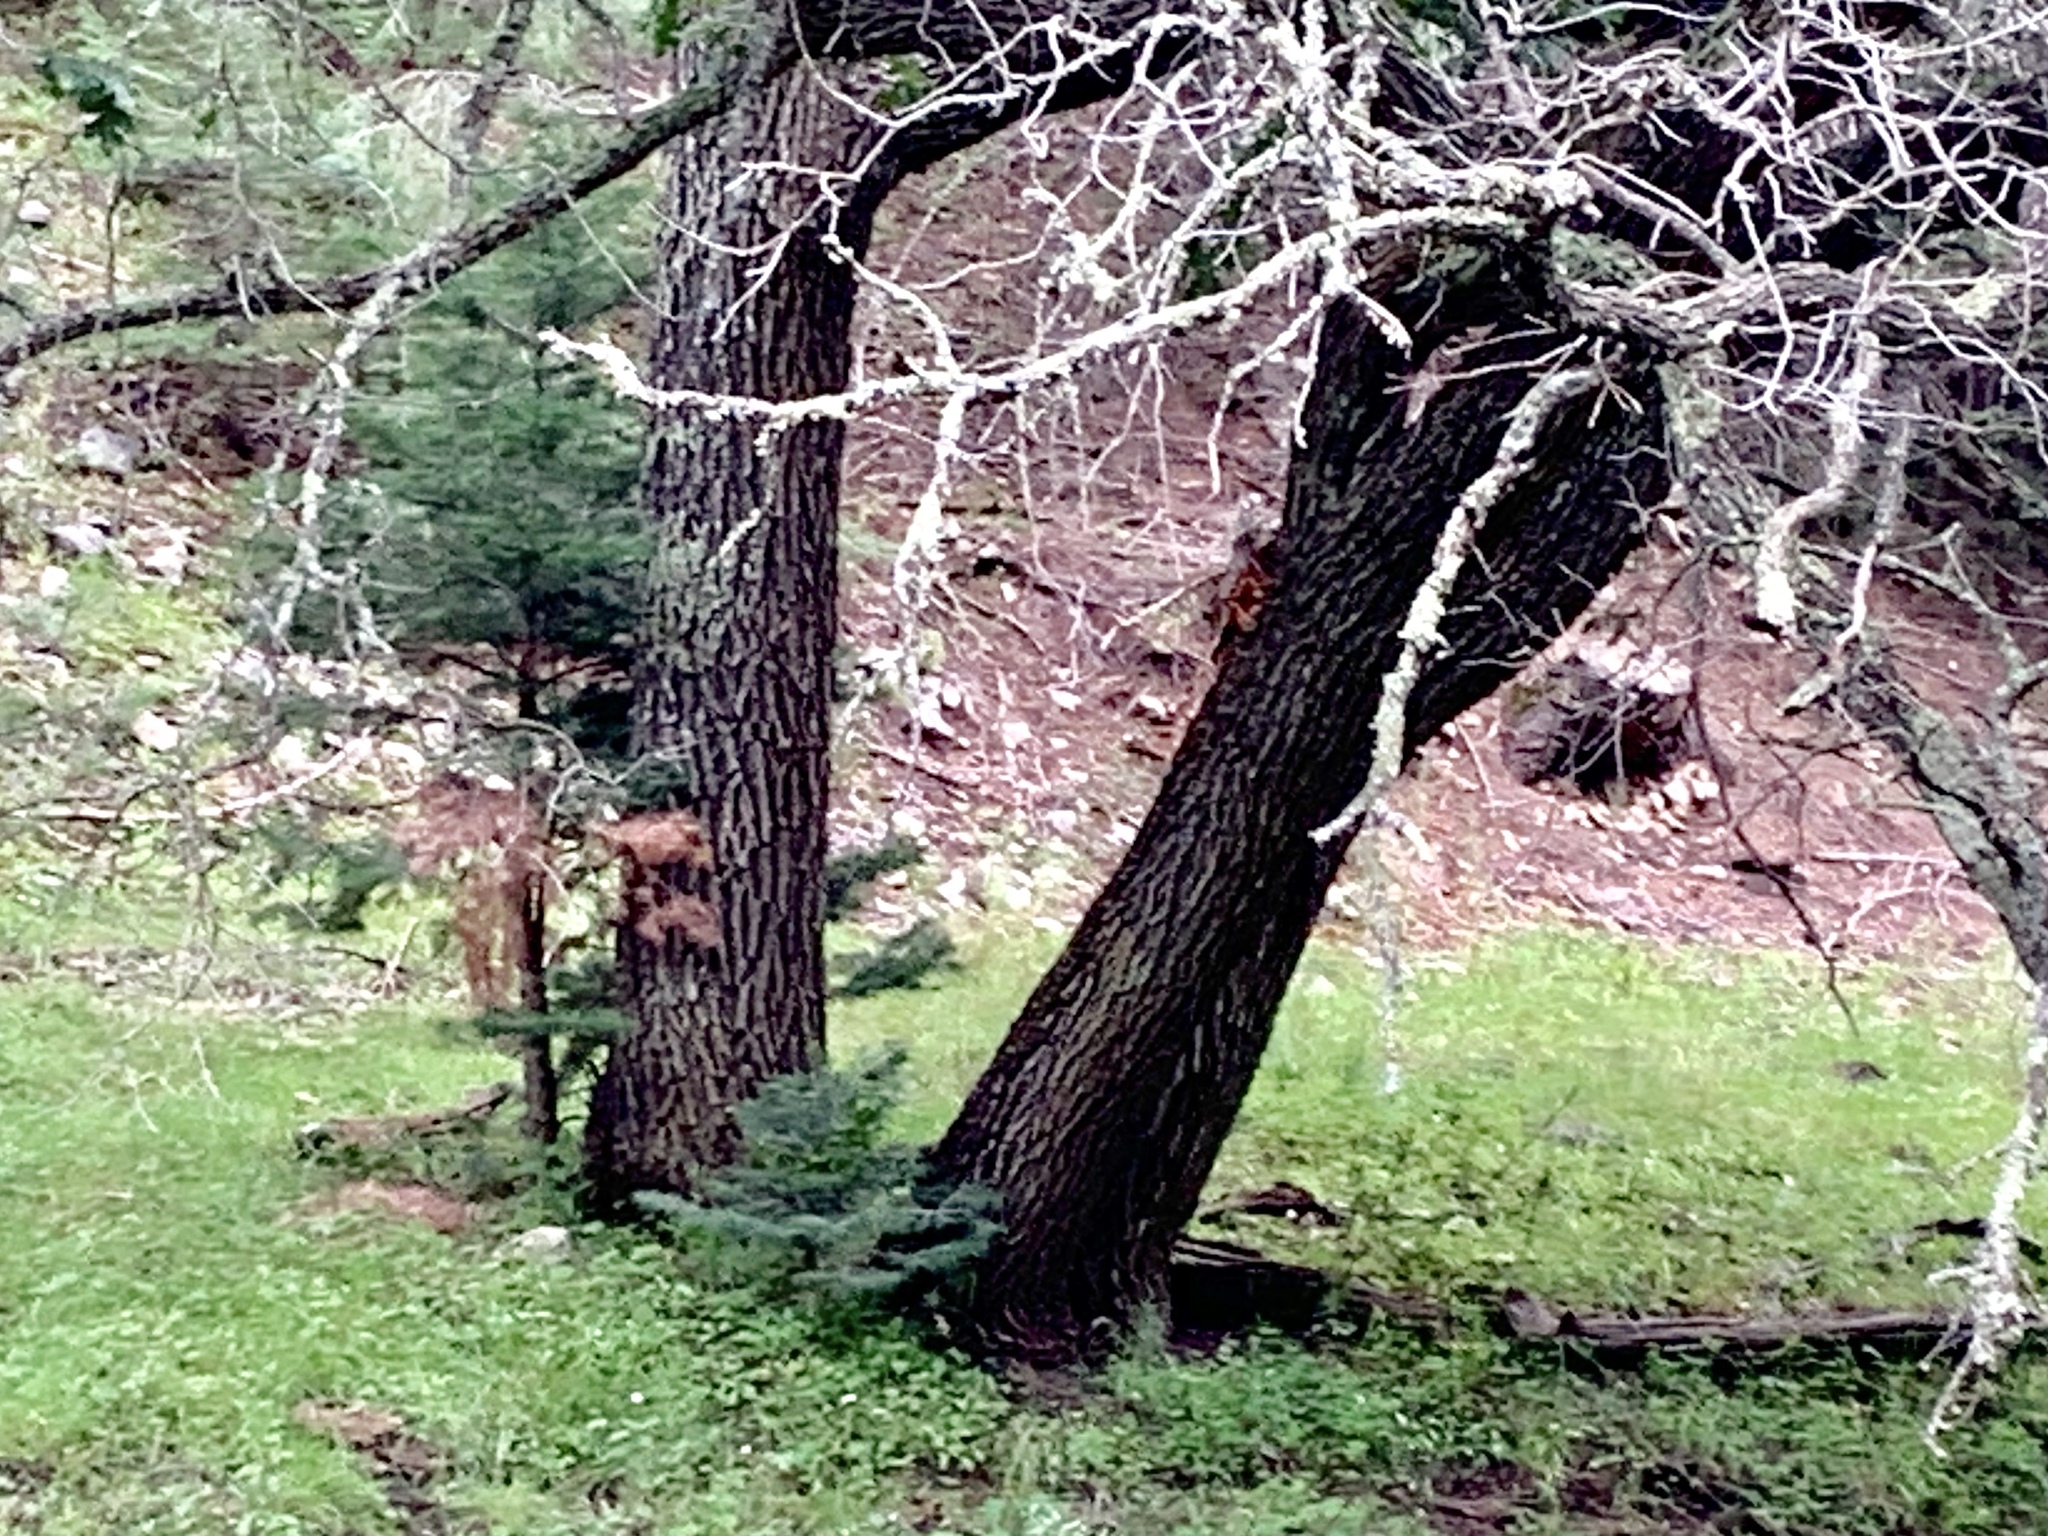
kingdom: Plantae
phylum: Tracheophyta
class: Magnoliopsida
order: Fagales
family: Fagaceae
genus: Quercus
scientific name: Quercus gambelii
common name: Gambel oak
